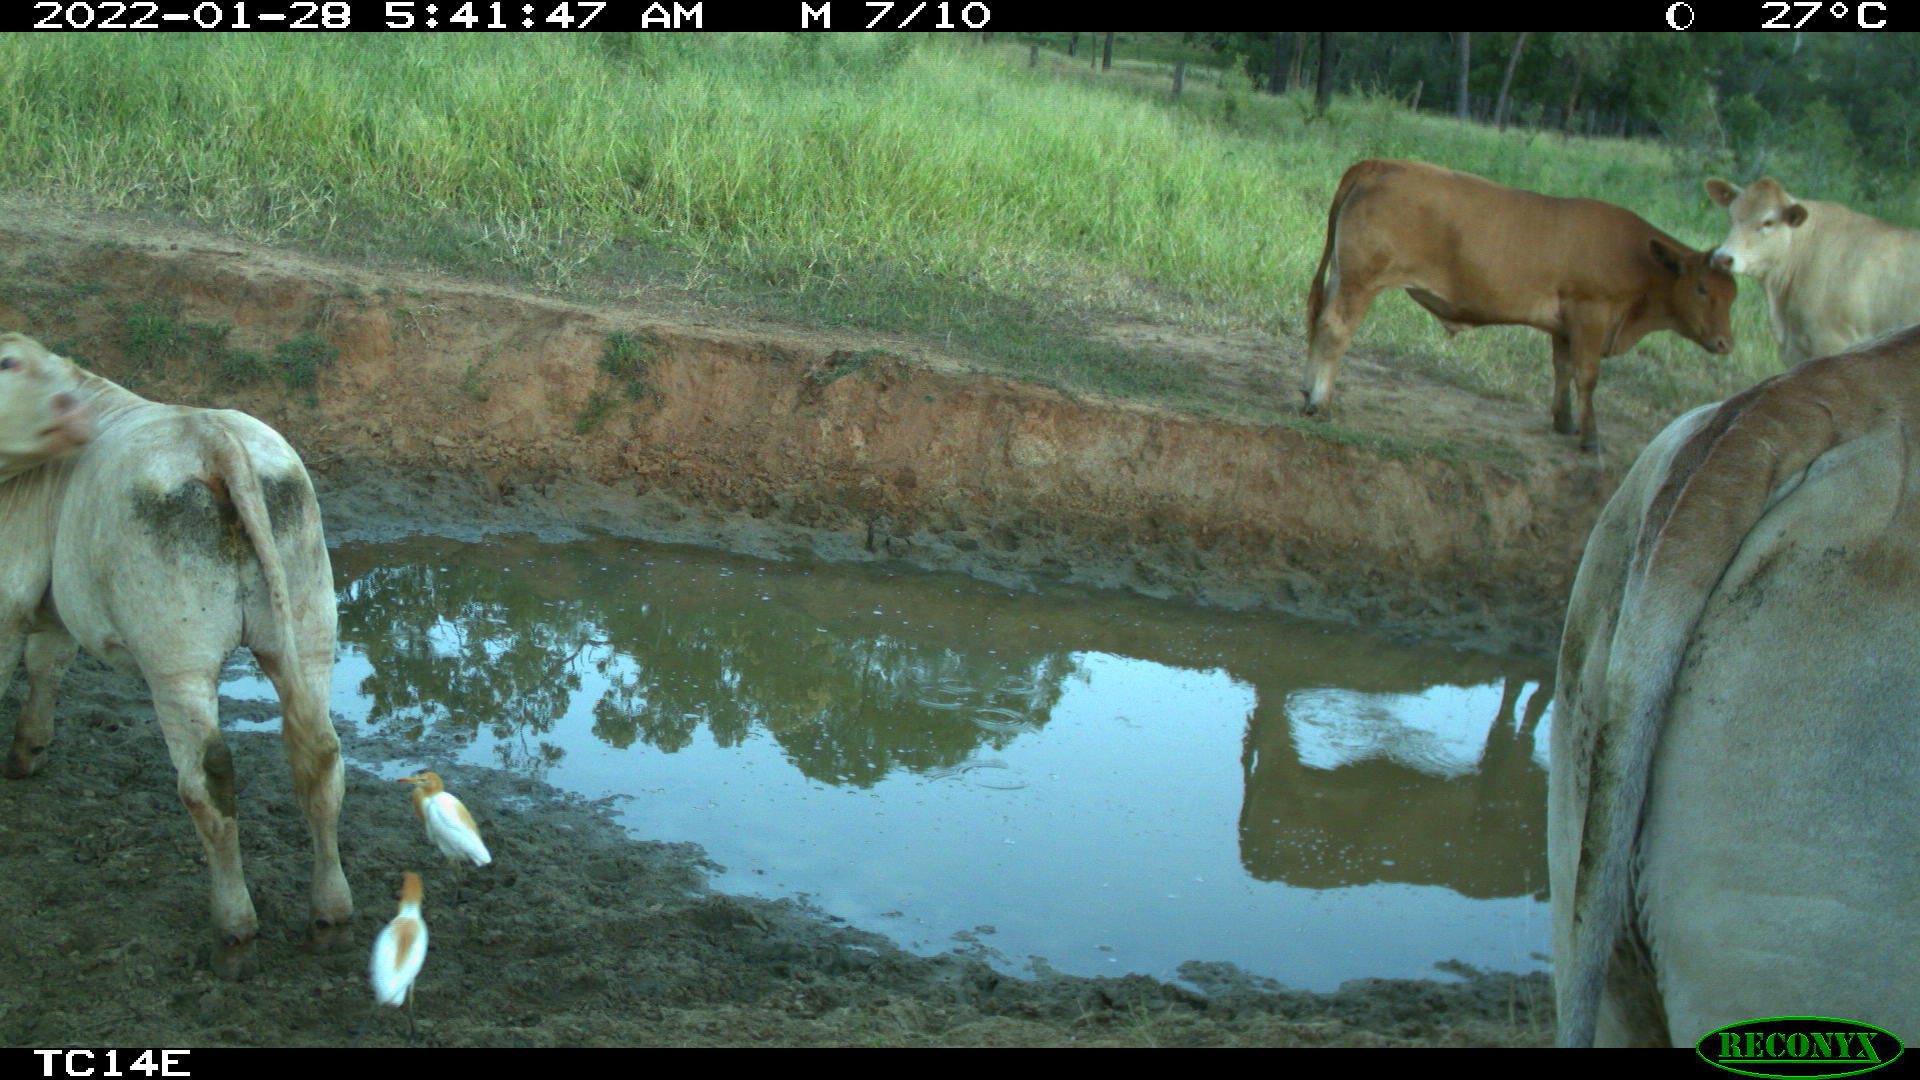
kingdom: Animalia
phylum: Chordata
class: Aves
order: Pelecaniformes
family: Ardeidae
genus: Bubulcus
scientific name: Bubulcus coromandus
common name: Eastern cattle egret
